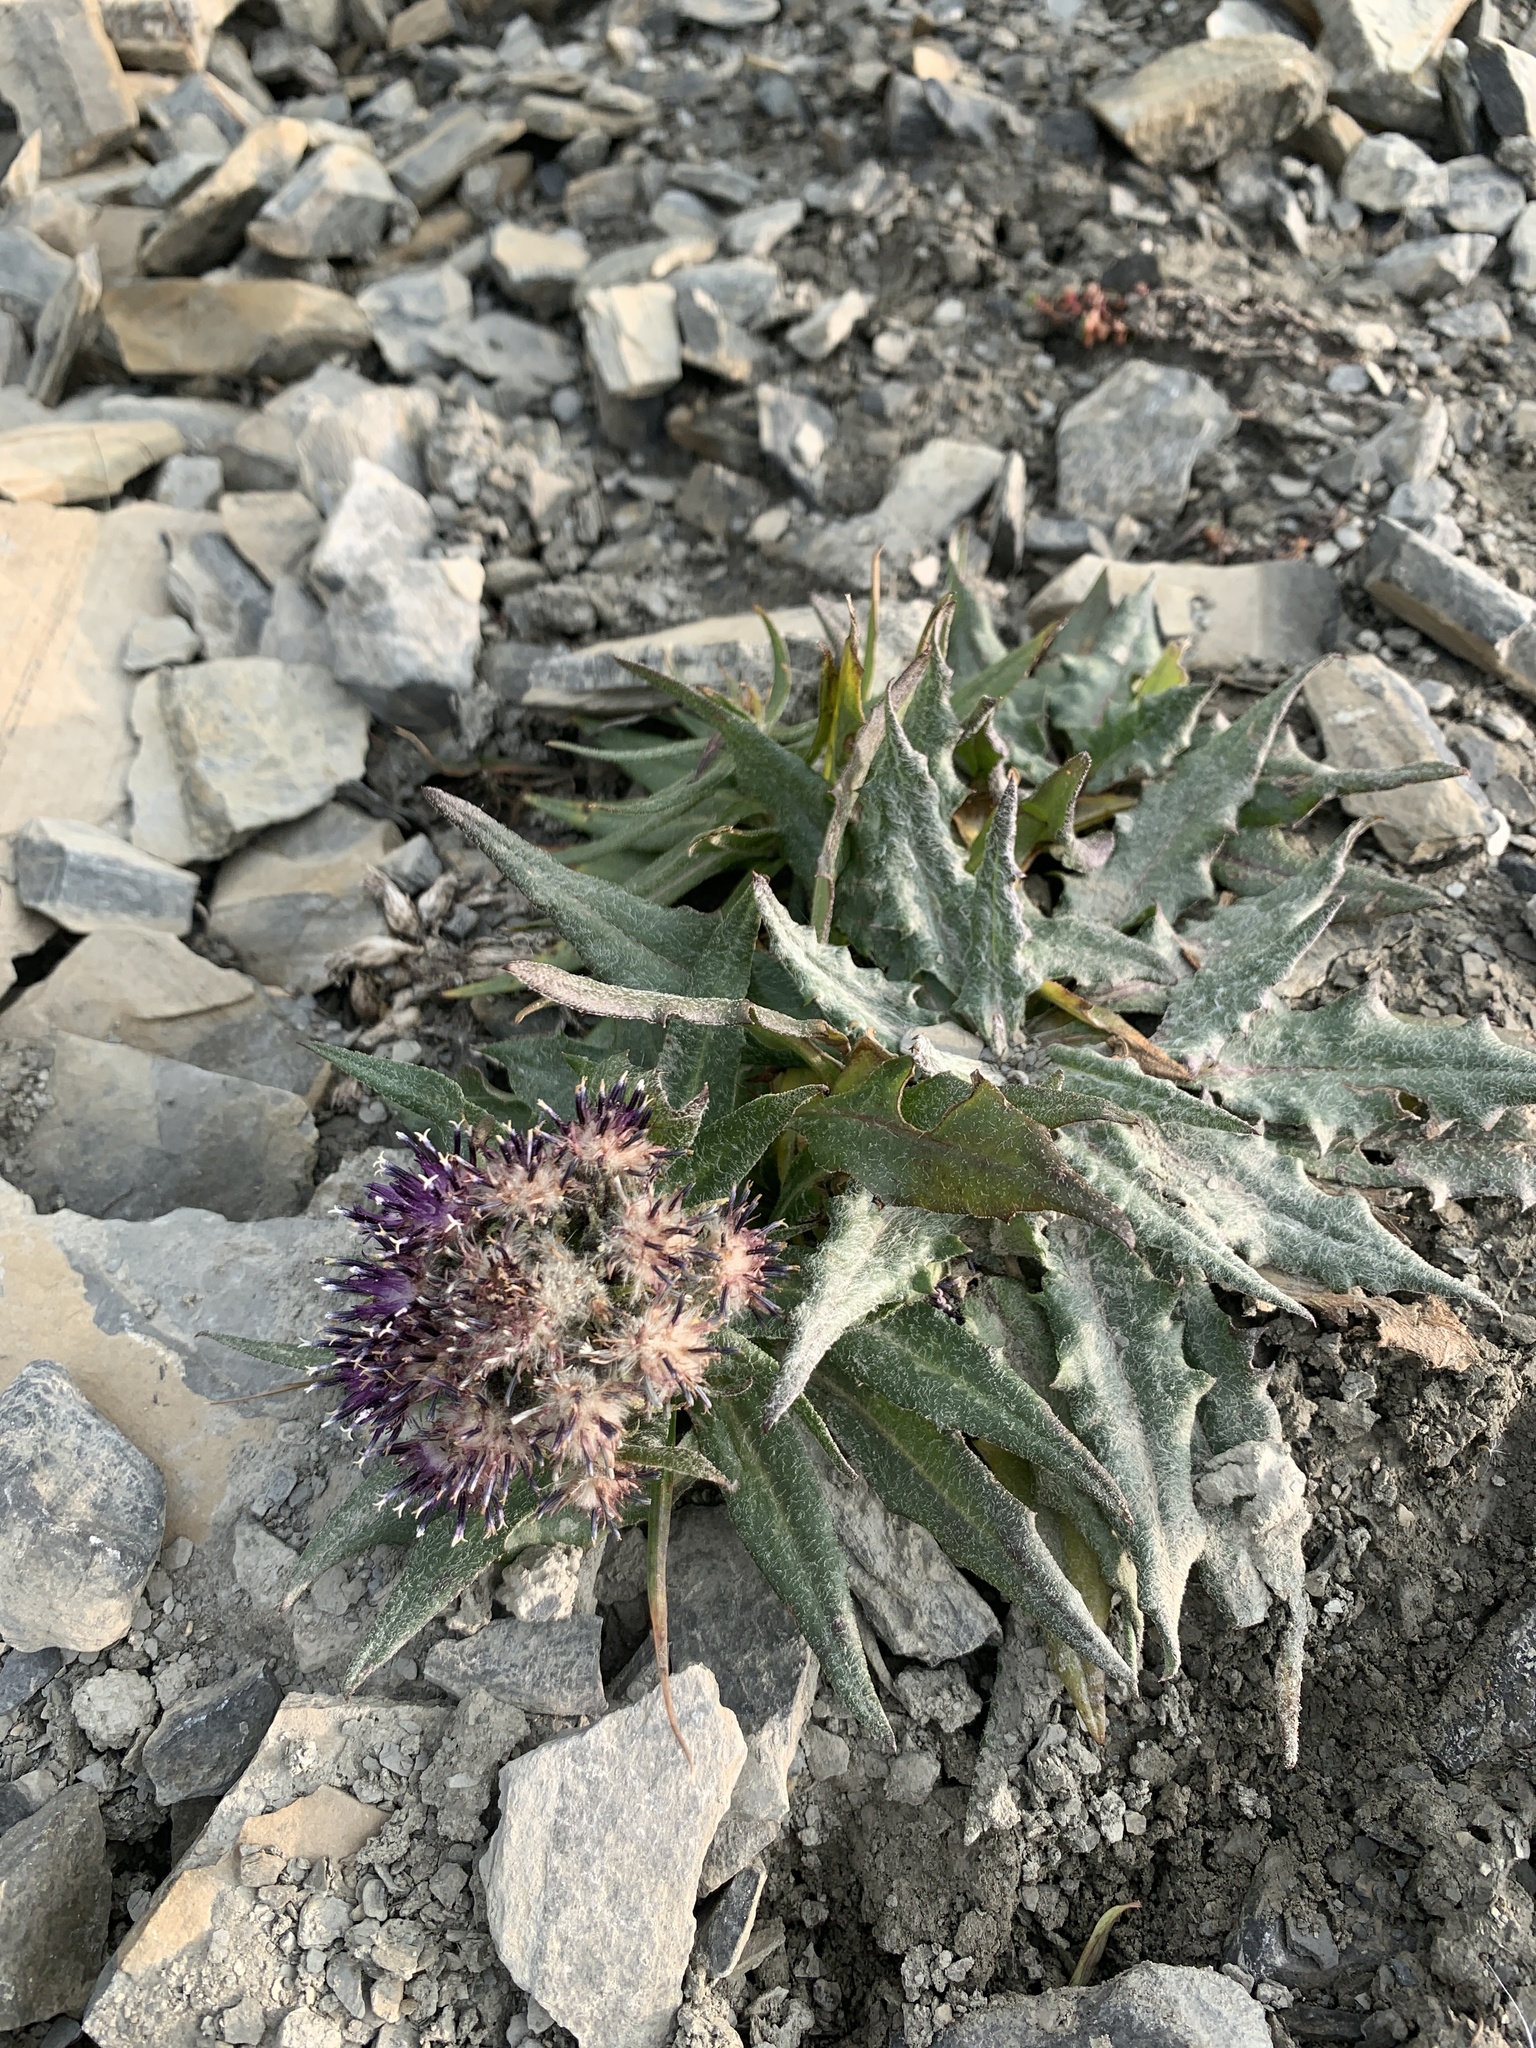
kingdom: Plantae
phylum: Tracheophyta
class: Magnoliopsida
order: Asterales
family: Asteraceae
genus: Saussurea
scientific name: Saussurea nuda
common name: Chaffless saw-wort
